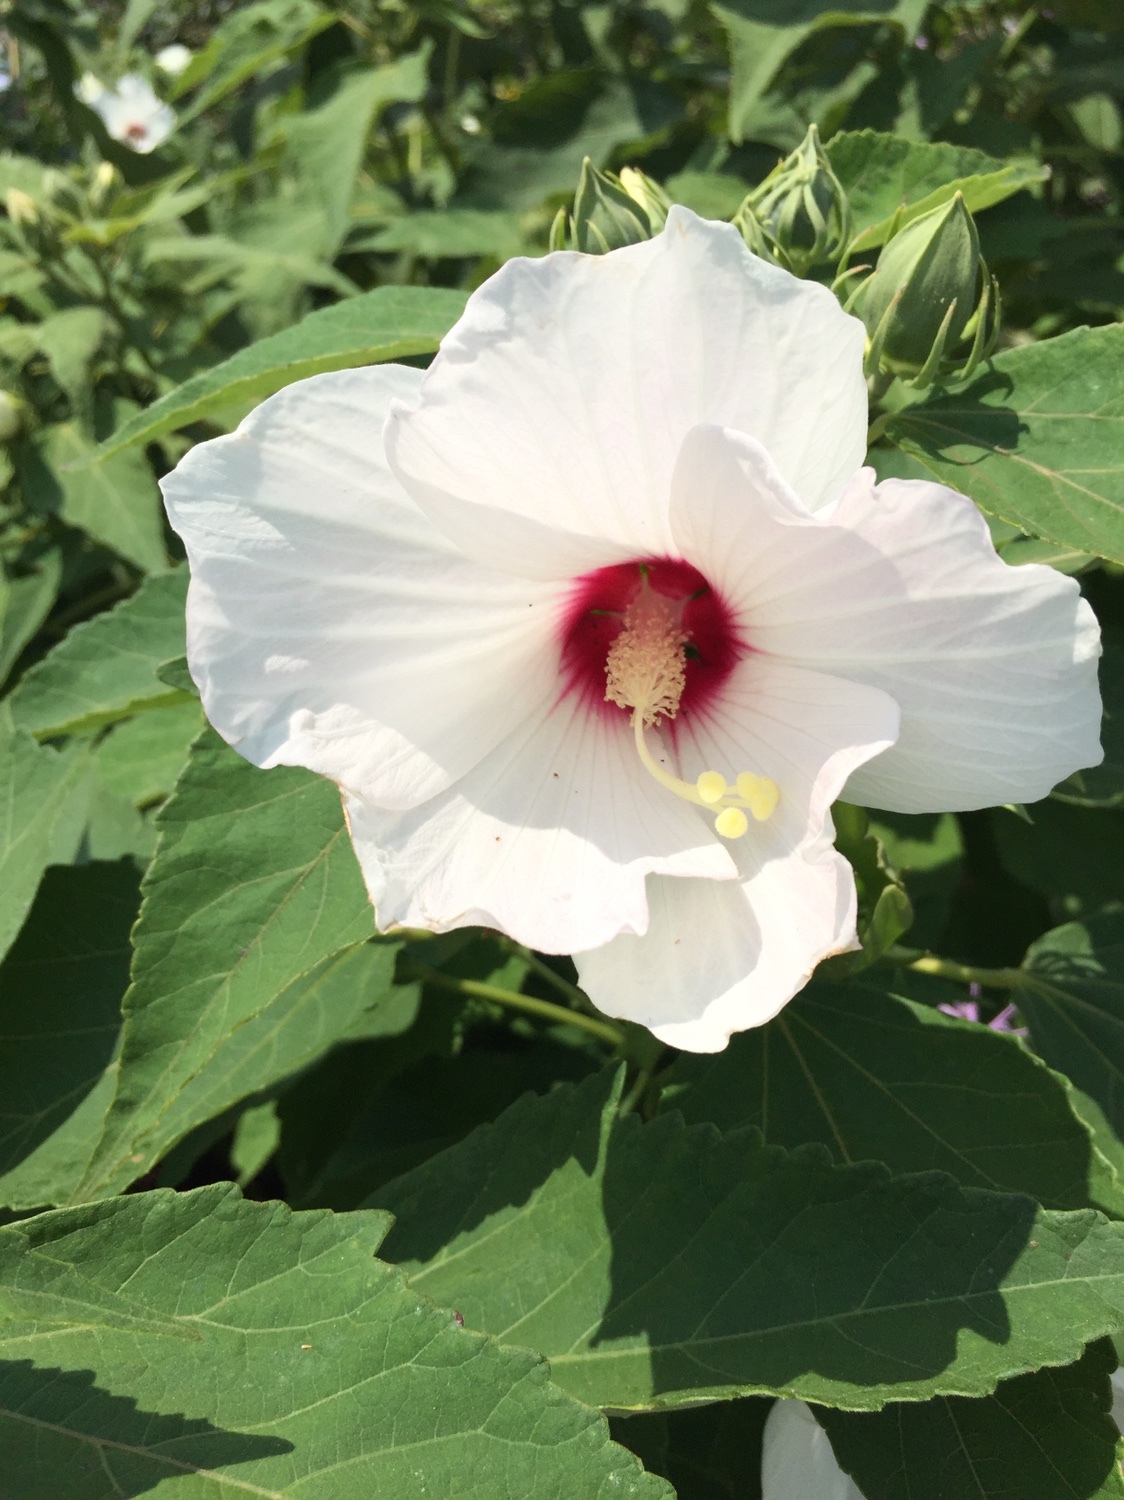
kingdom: Plantae
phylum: Tracheophyta
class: Magnoliopsida
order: Malvales
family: Malvaceae
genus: Hibiscus
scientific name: Hibiscus moscheutos
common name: Common rose-mallow
